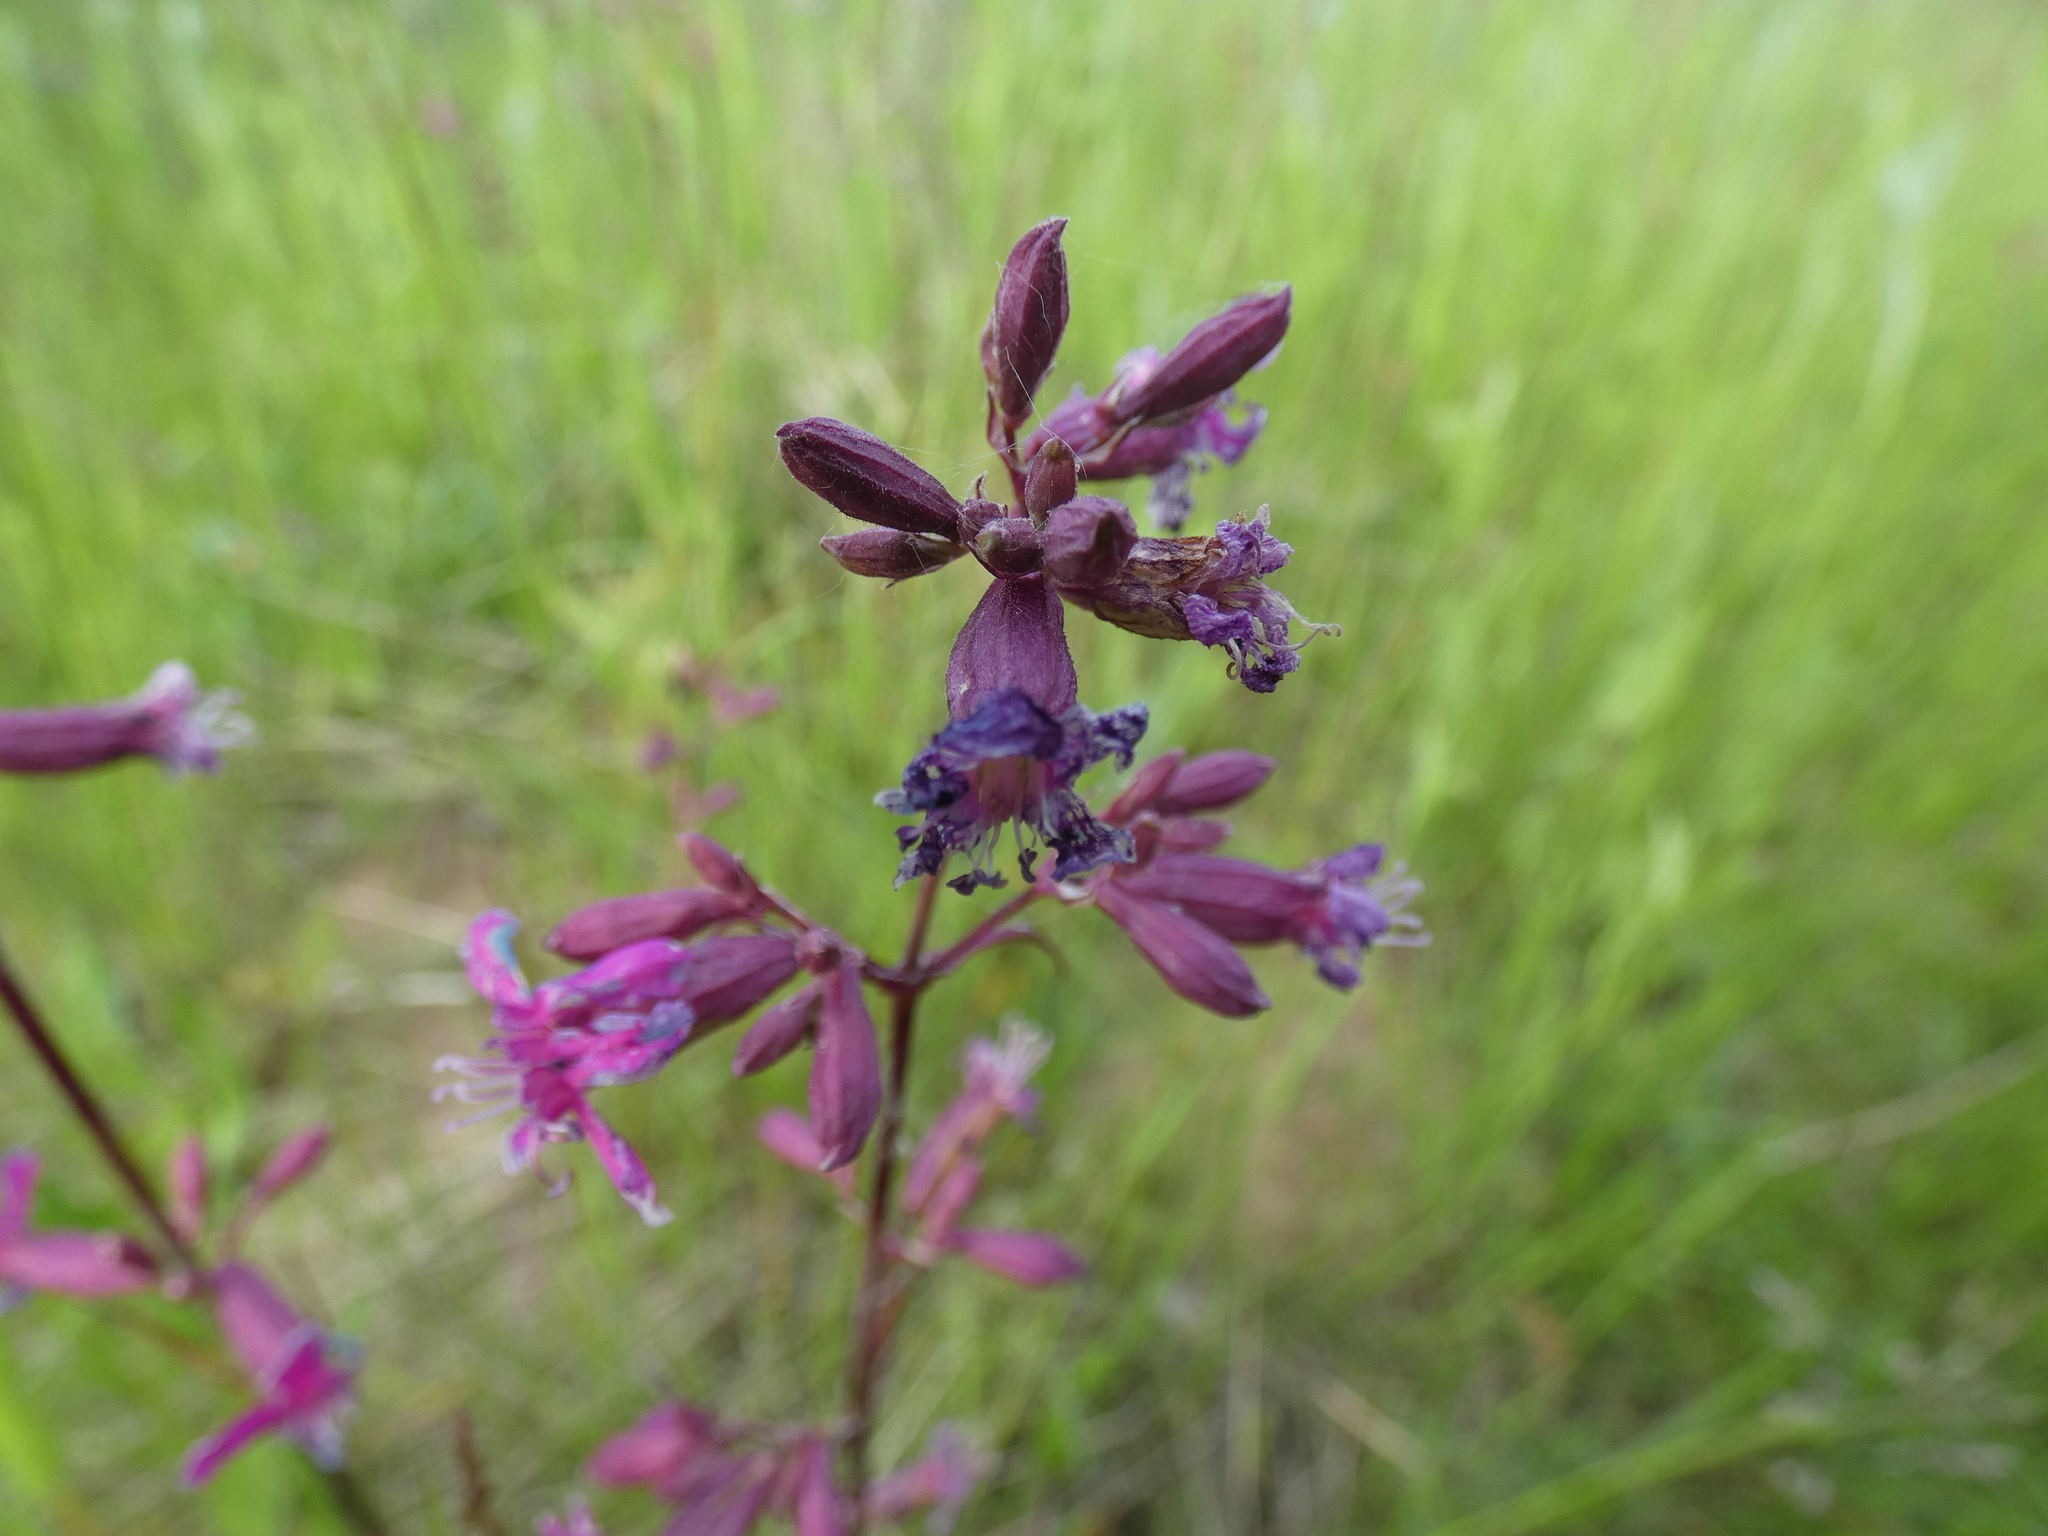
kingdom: Plantae
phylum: Tracheophyta
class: Magnoliopsida
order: Caryophyllales
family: Caryophyllaceae
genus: Viscaria
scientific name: Viscaria vulgaris
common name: Clammy campion
